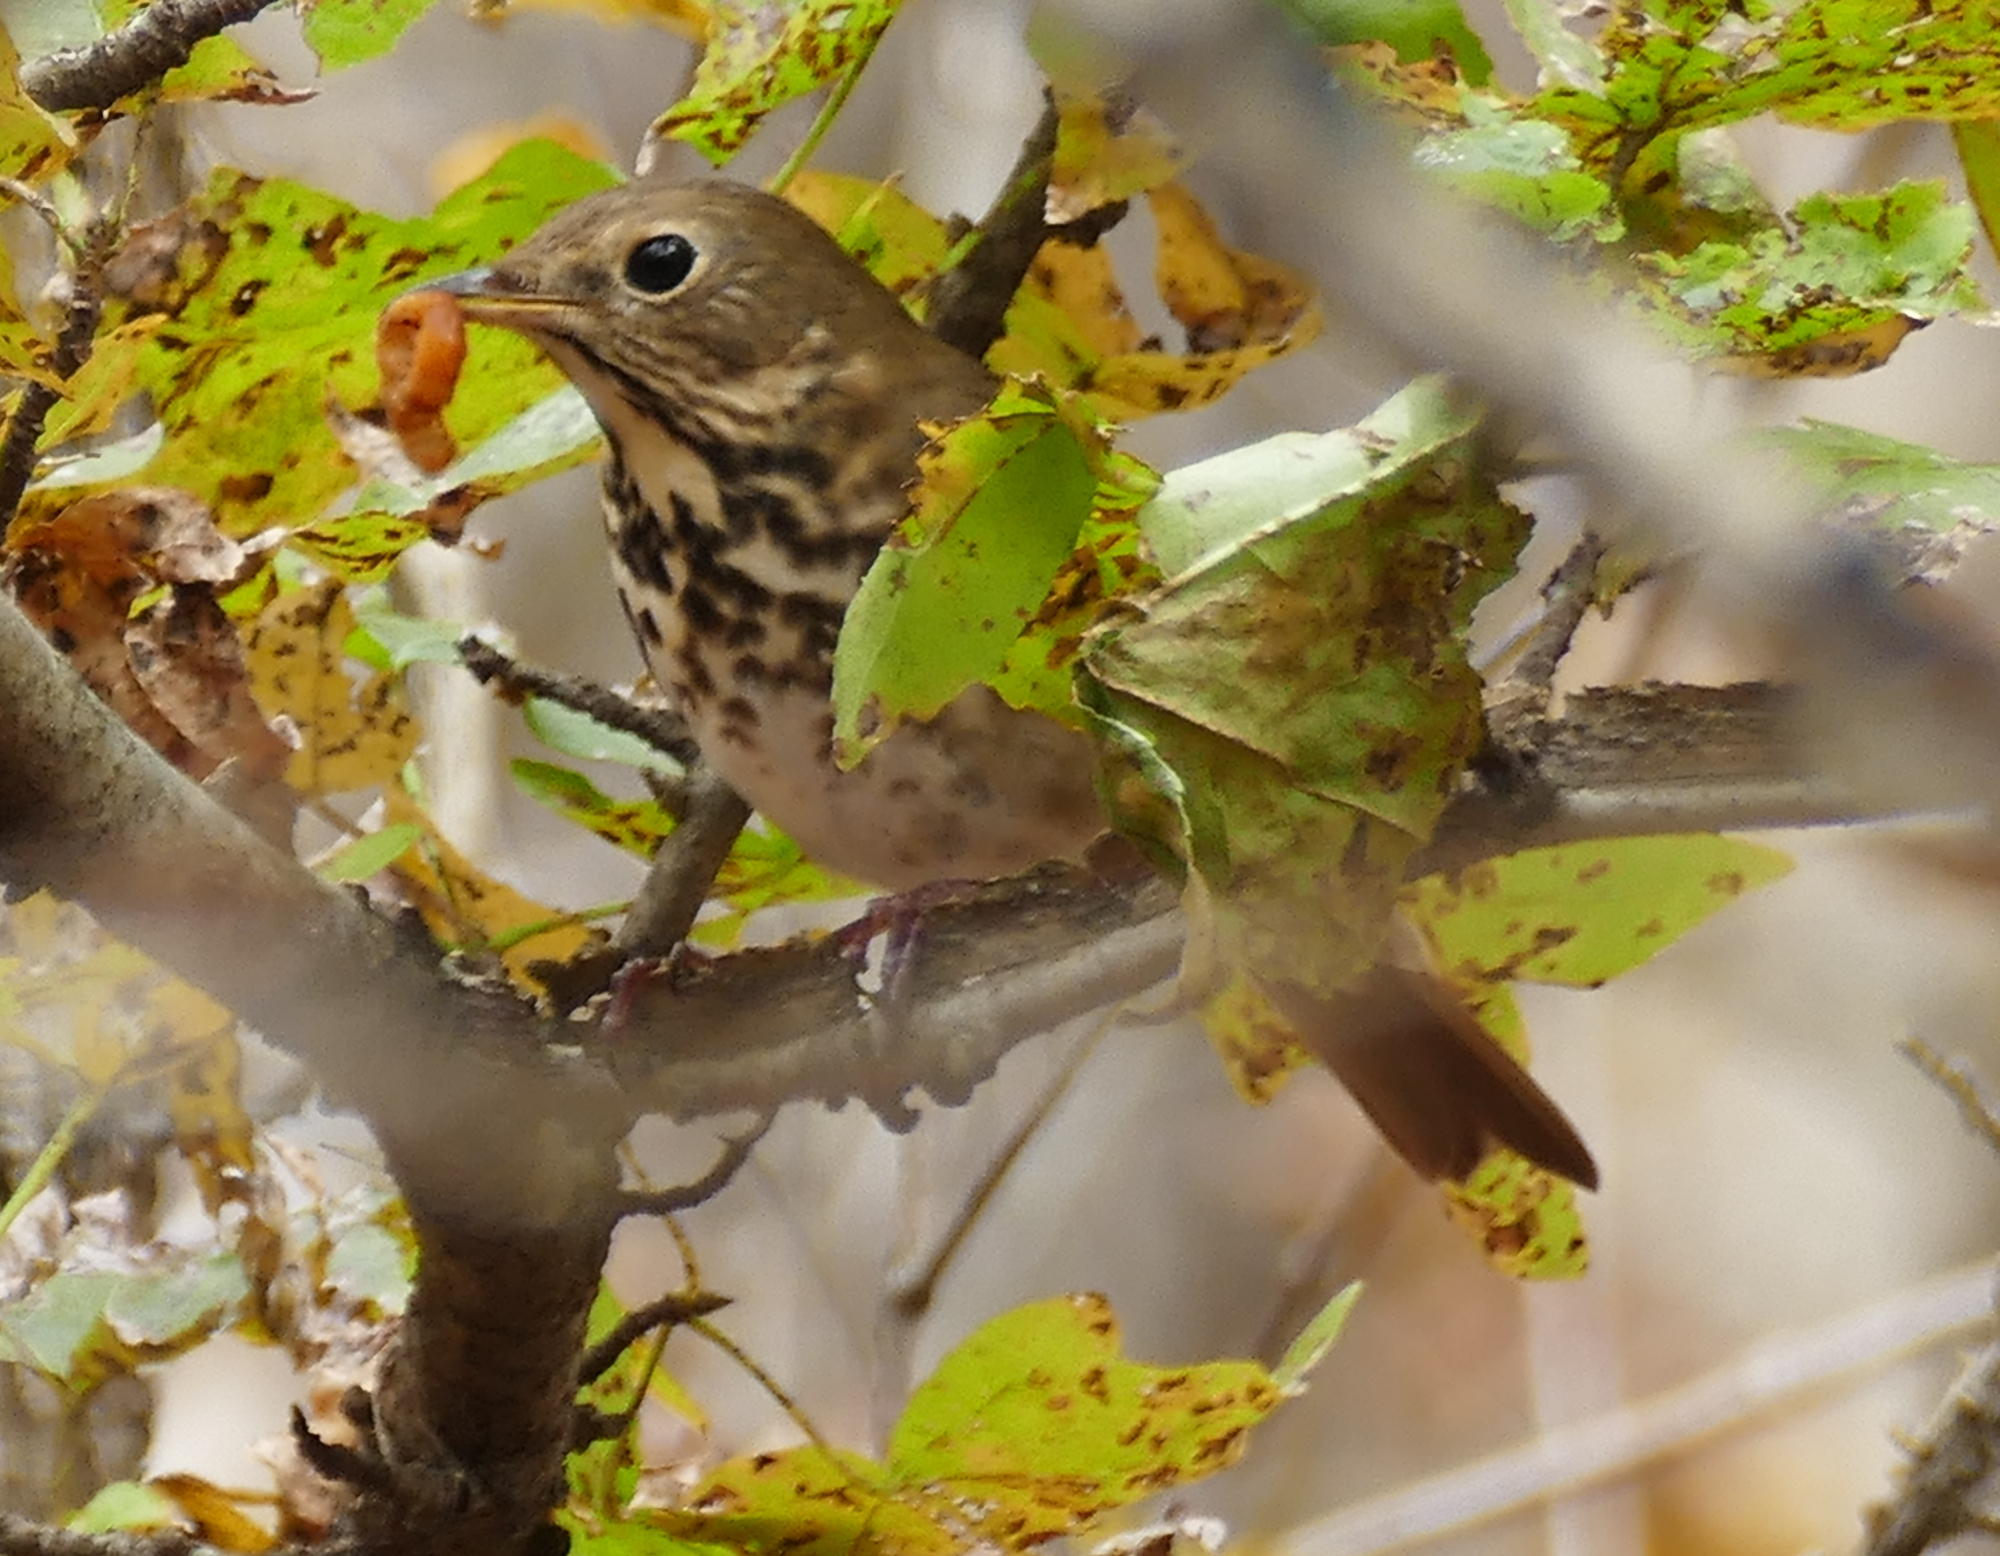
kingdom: Animalia
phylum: Chordata
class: Aves
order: Passeriformes
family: Turdidae
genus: Catharus
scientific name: Catharus guttatus
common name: Hermit thrush
